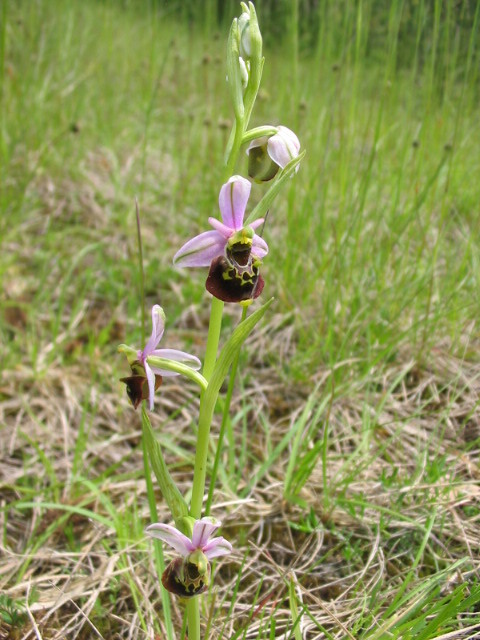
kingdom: Plantae
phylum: Tracheophyta
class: Liliopsida
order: Asparagales
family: Orchidaceae
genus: Ophrys
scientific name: Ophrys holosericea
